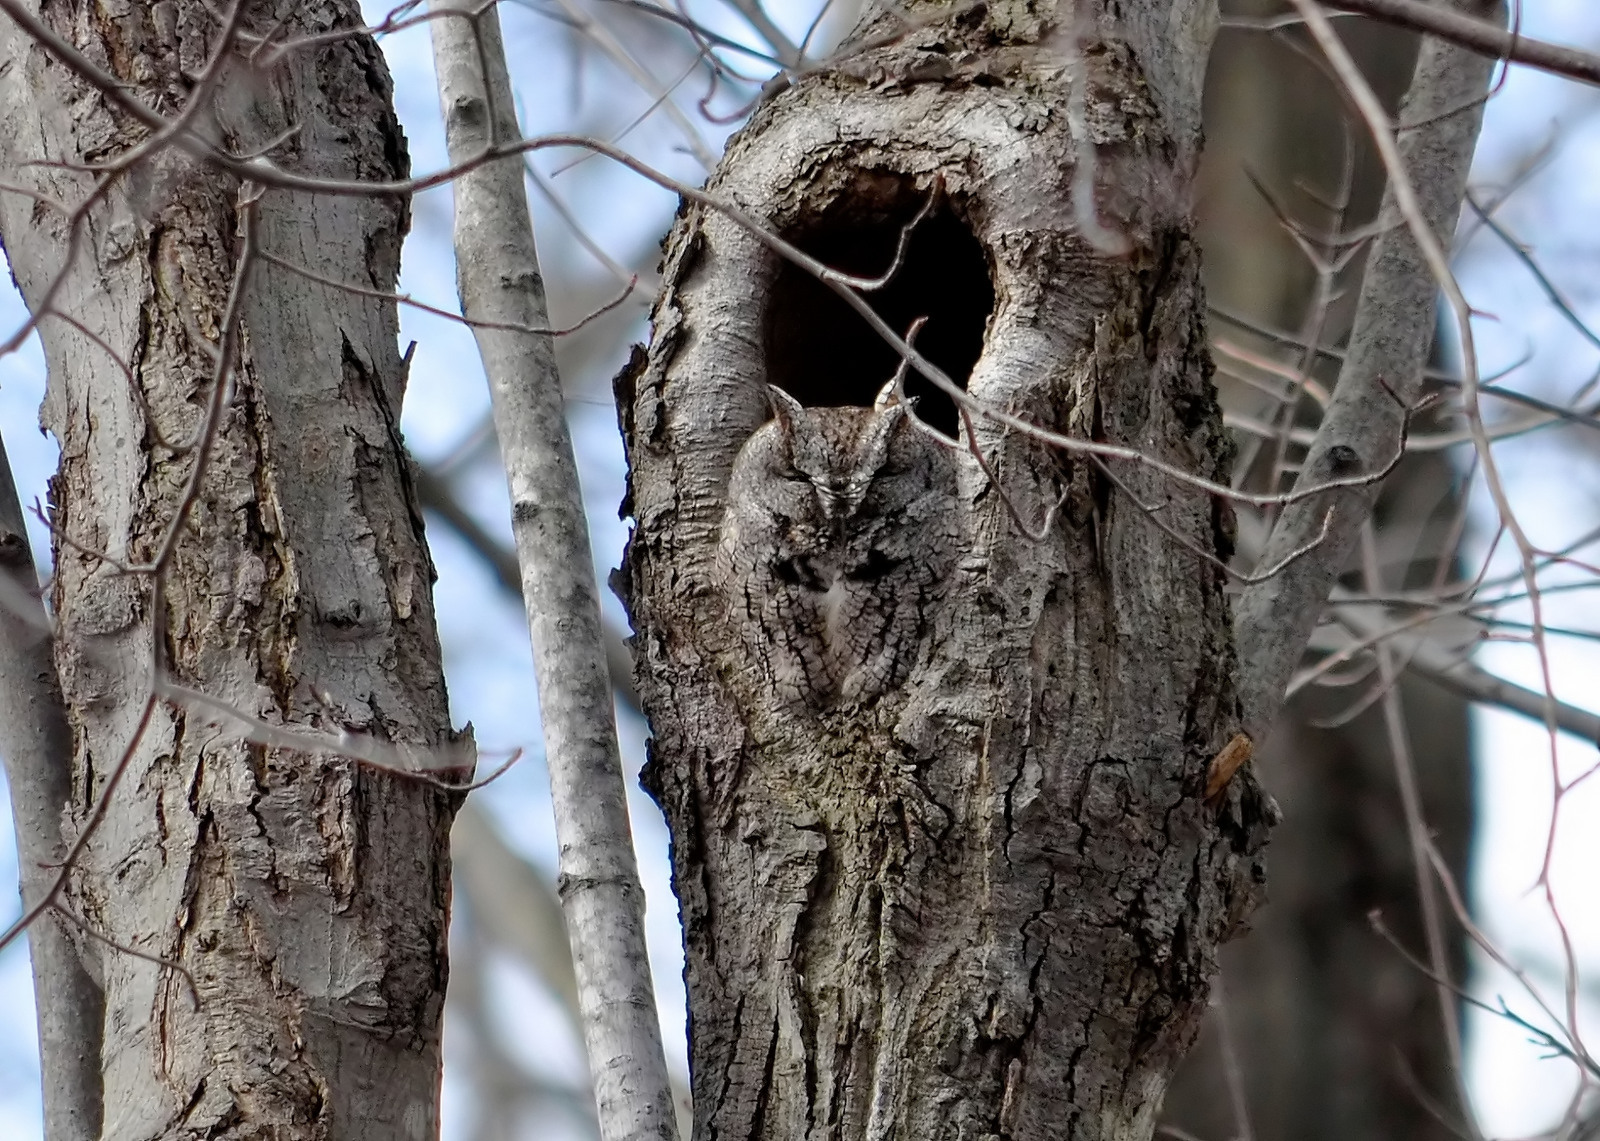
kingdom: Animalia
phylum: Chordata
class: Aves
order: Strigiformes
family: Strigidae
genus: Megascops
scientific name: Megascops asio
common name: Eastern screech-owl
